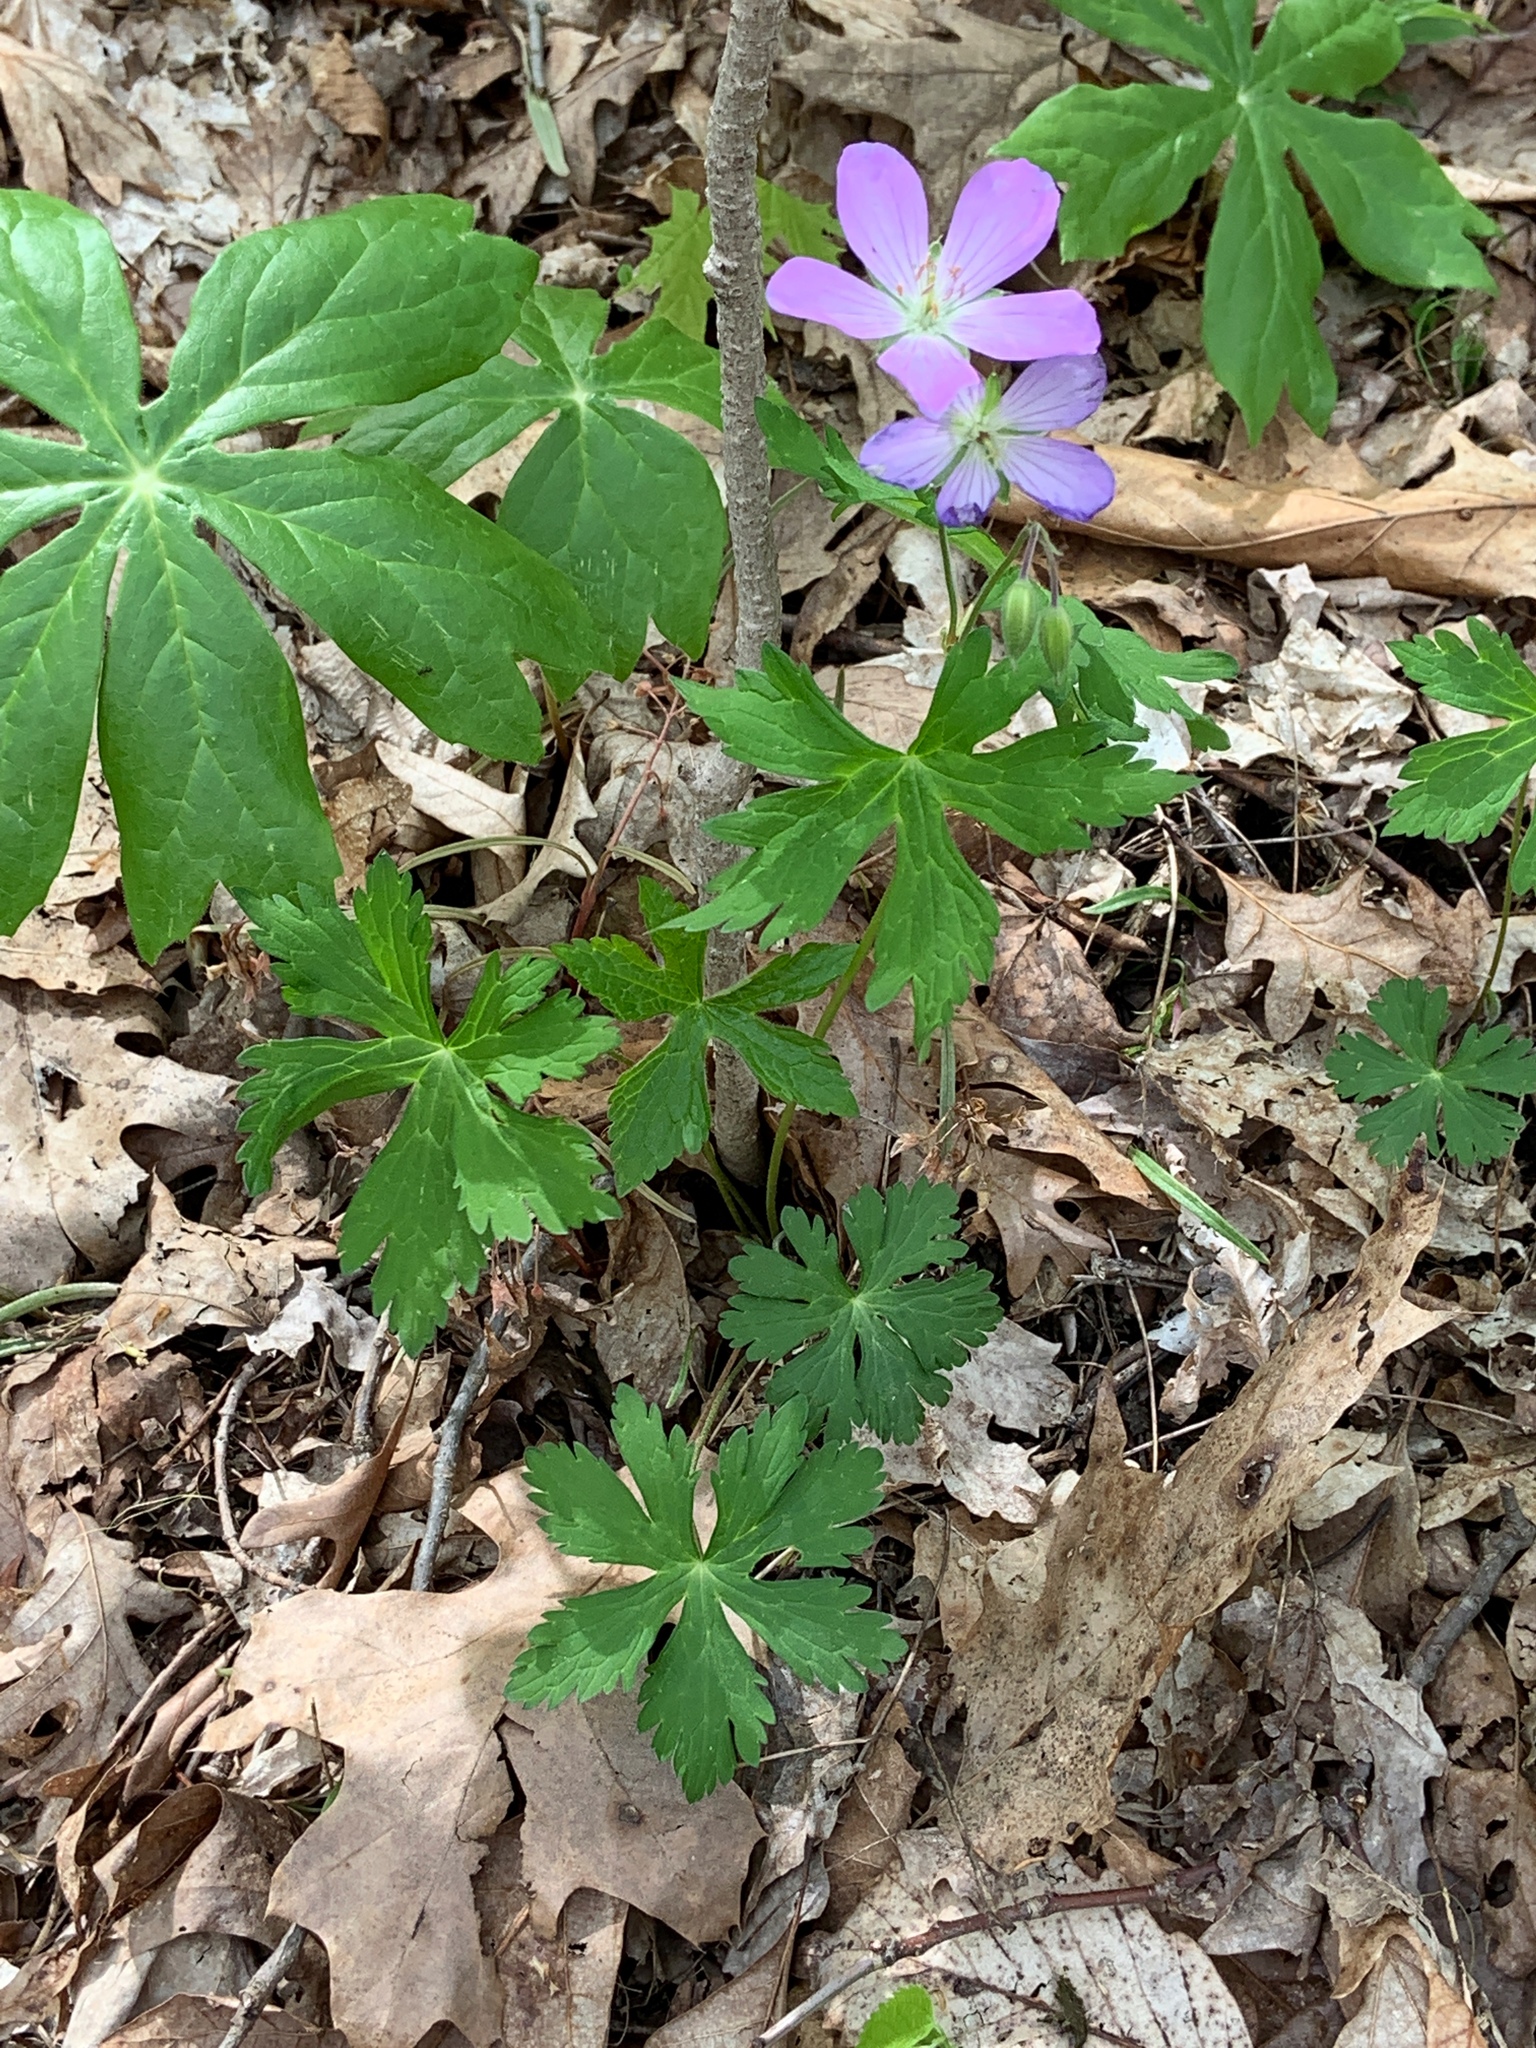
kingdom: Plantae
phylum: Tracheophyta
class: Magnoliopsida
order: Geraniales
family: Geraniaceae
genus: Geranium
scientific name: Geranium maculatum
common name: Spotted geranium
